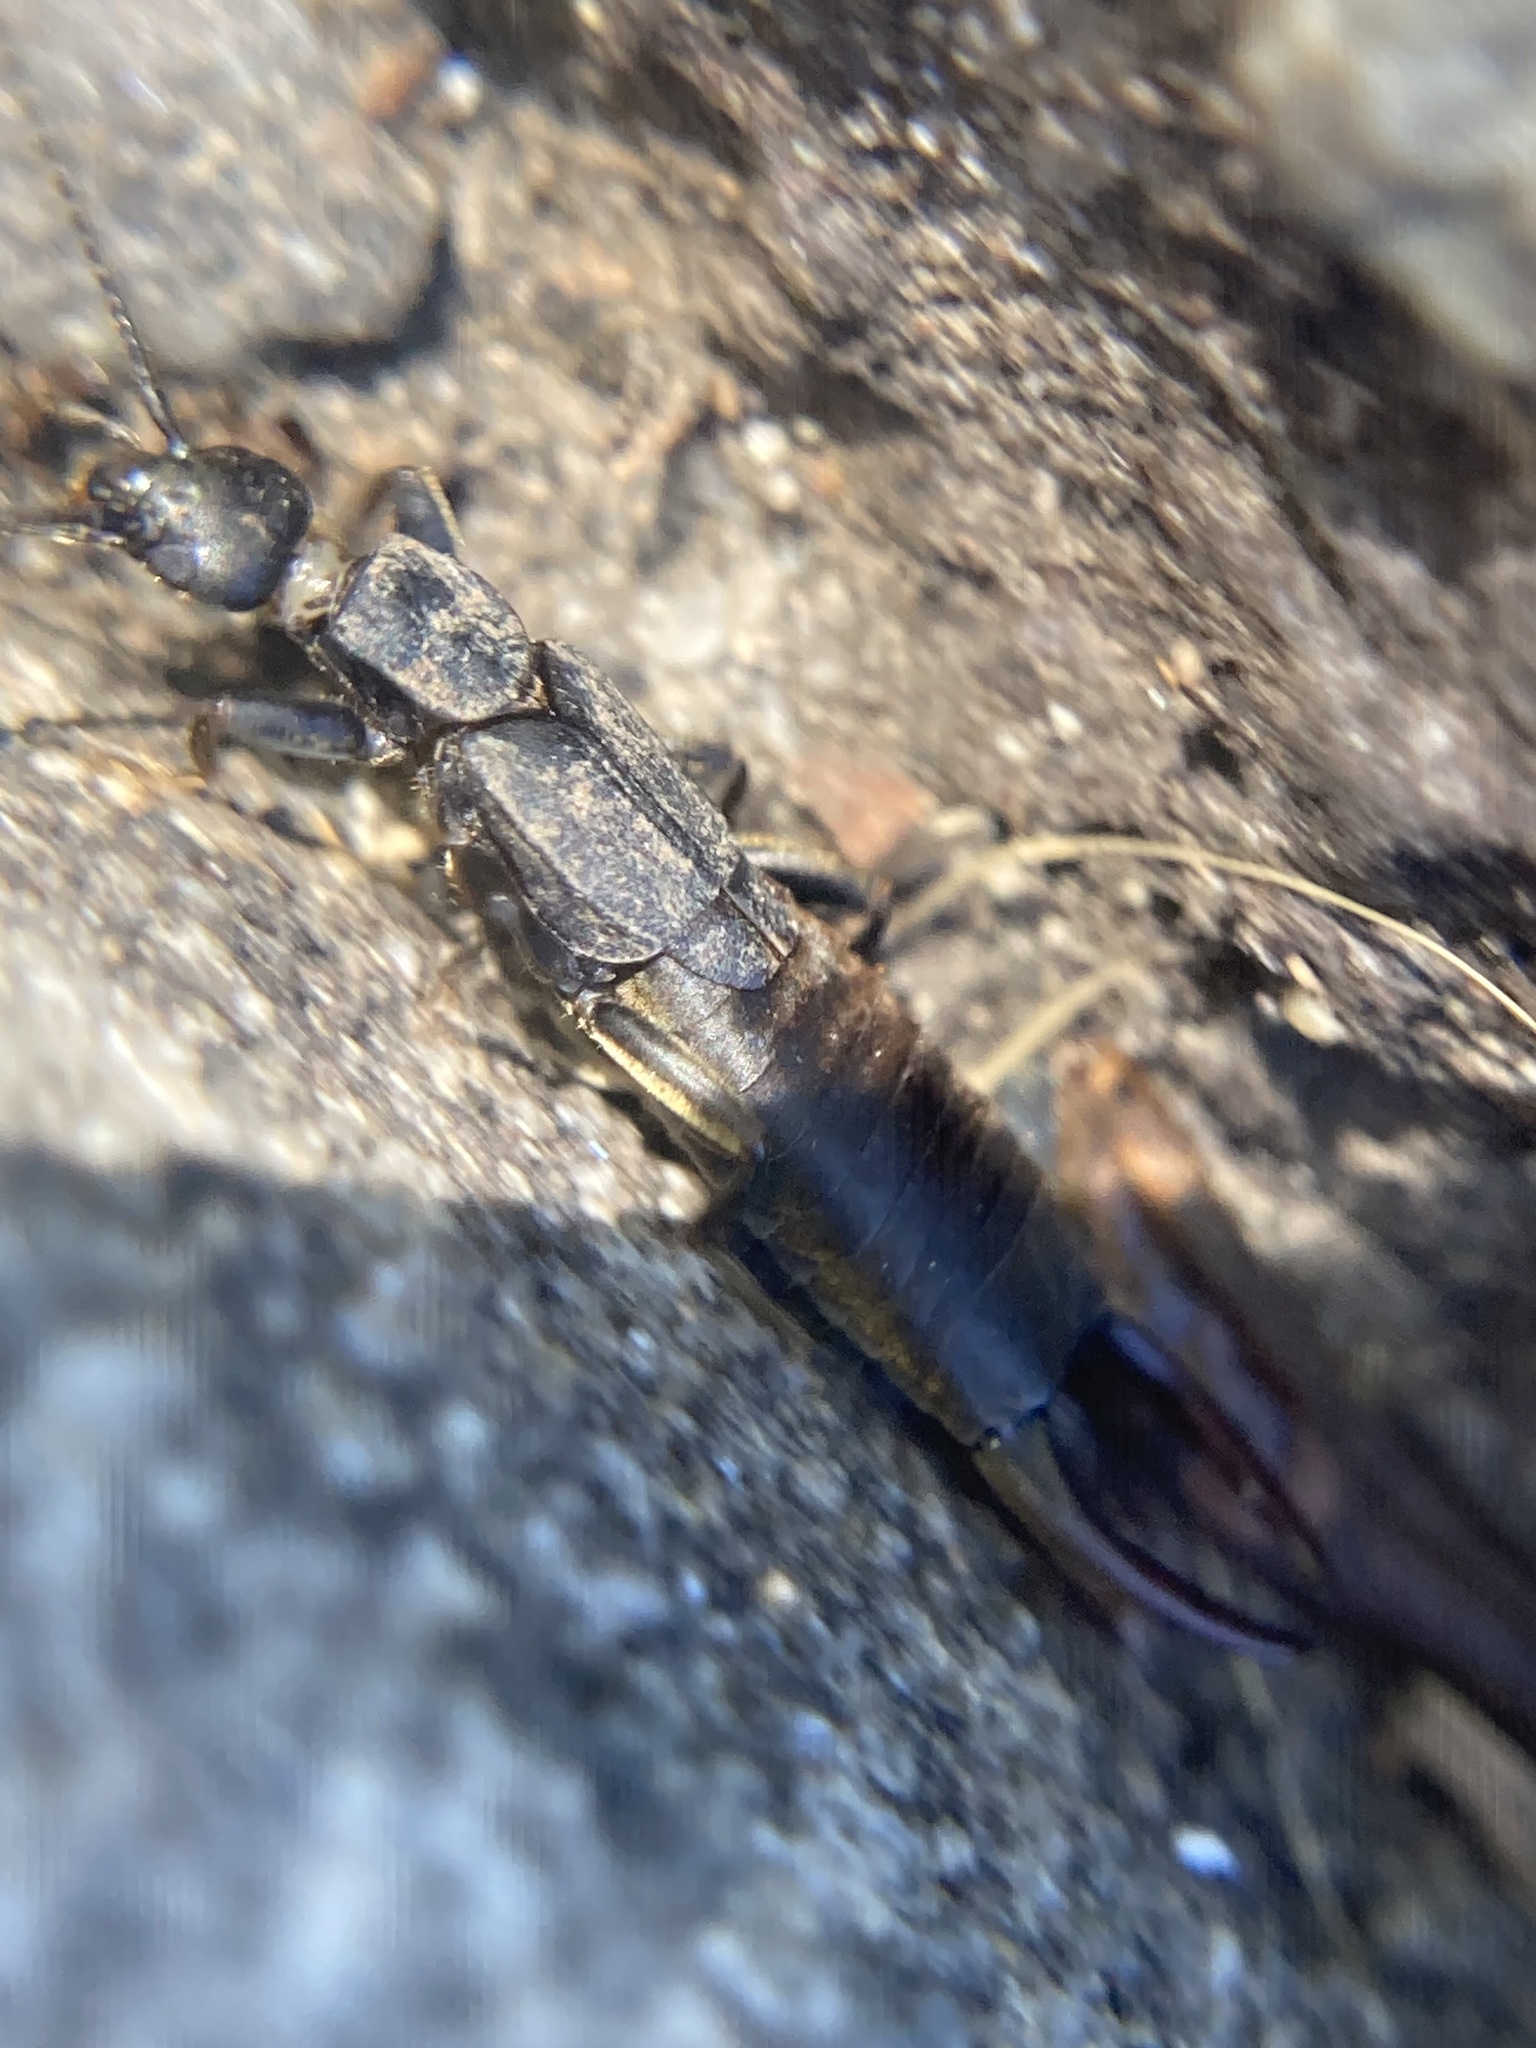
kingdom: Animalia
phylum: Arthropoda
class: Insecta
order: Dermaptera
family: Labiduridae
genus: Nala
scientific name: Nala lividipes
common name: Earwig
